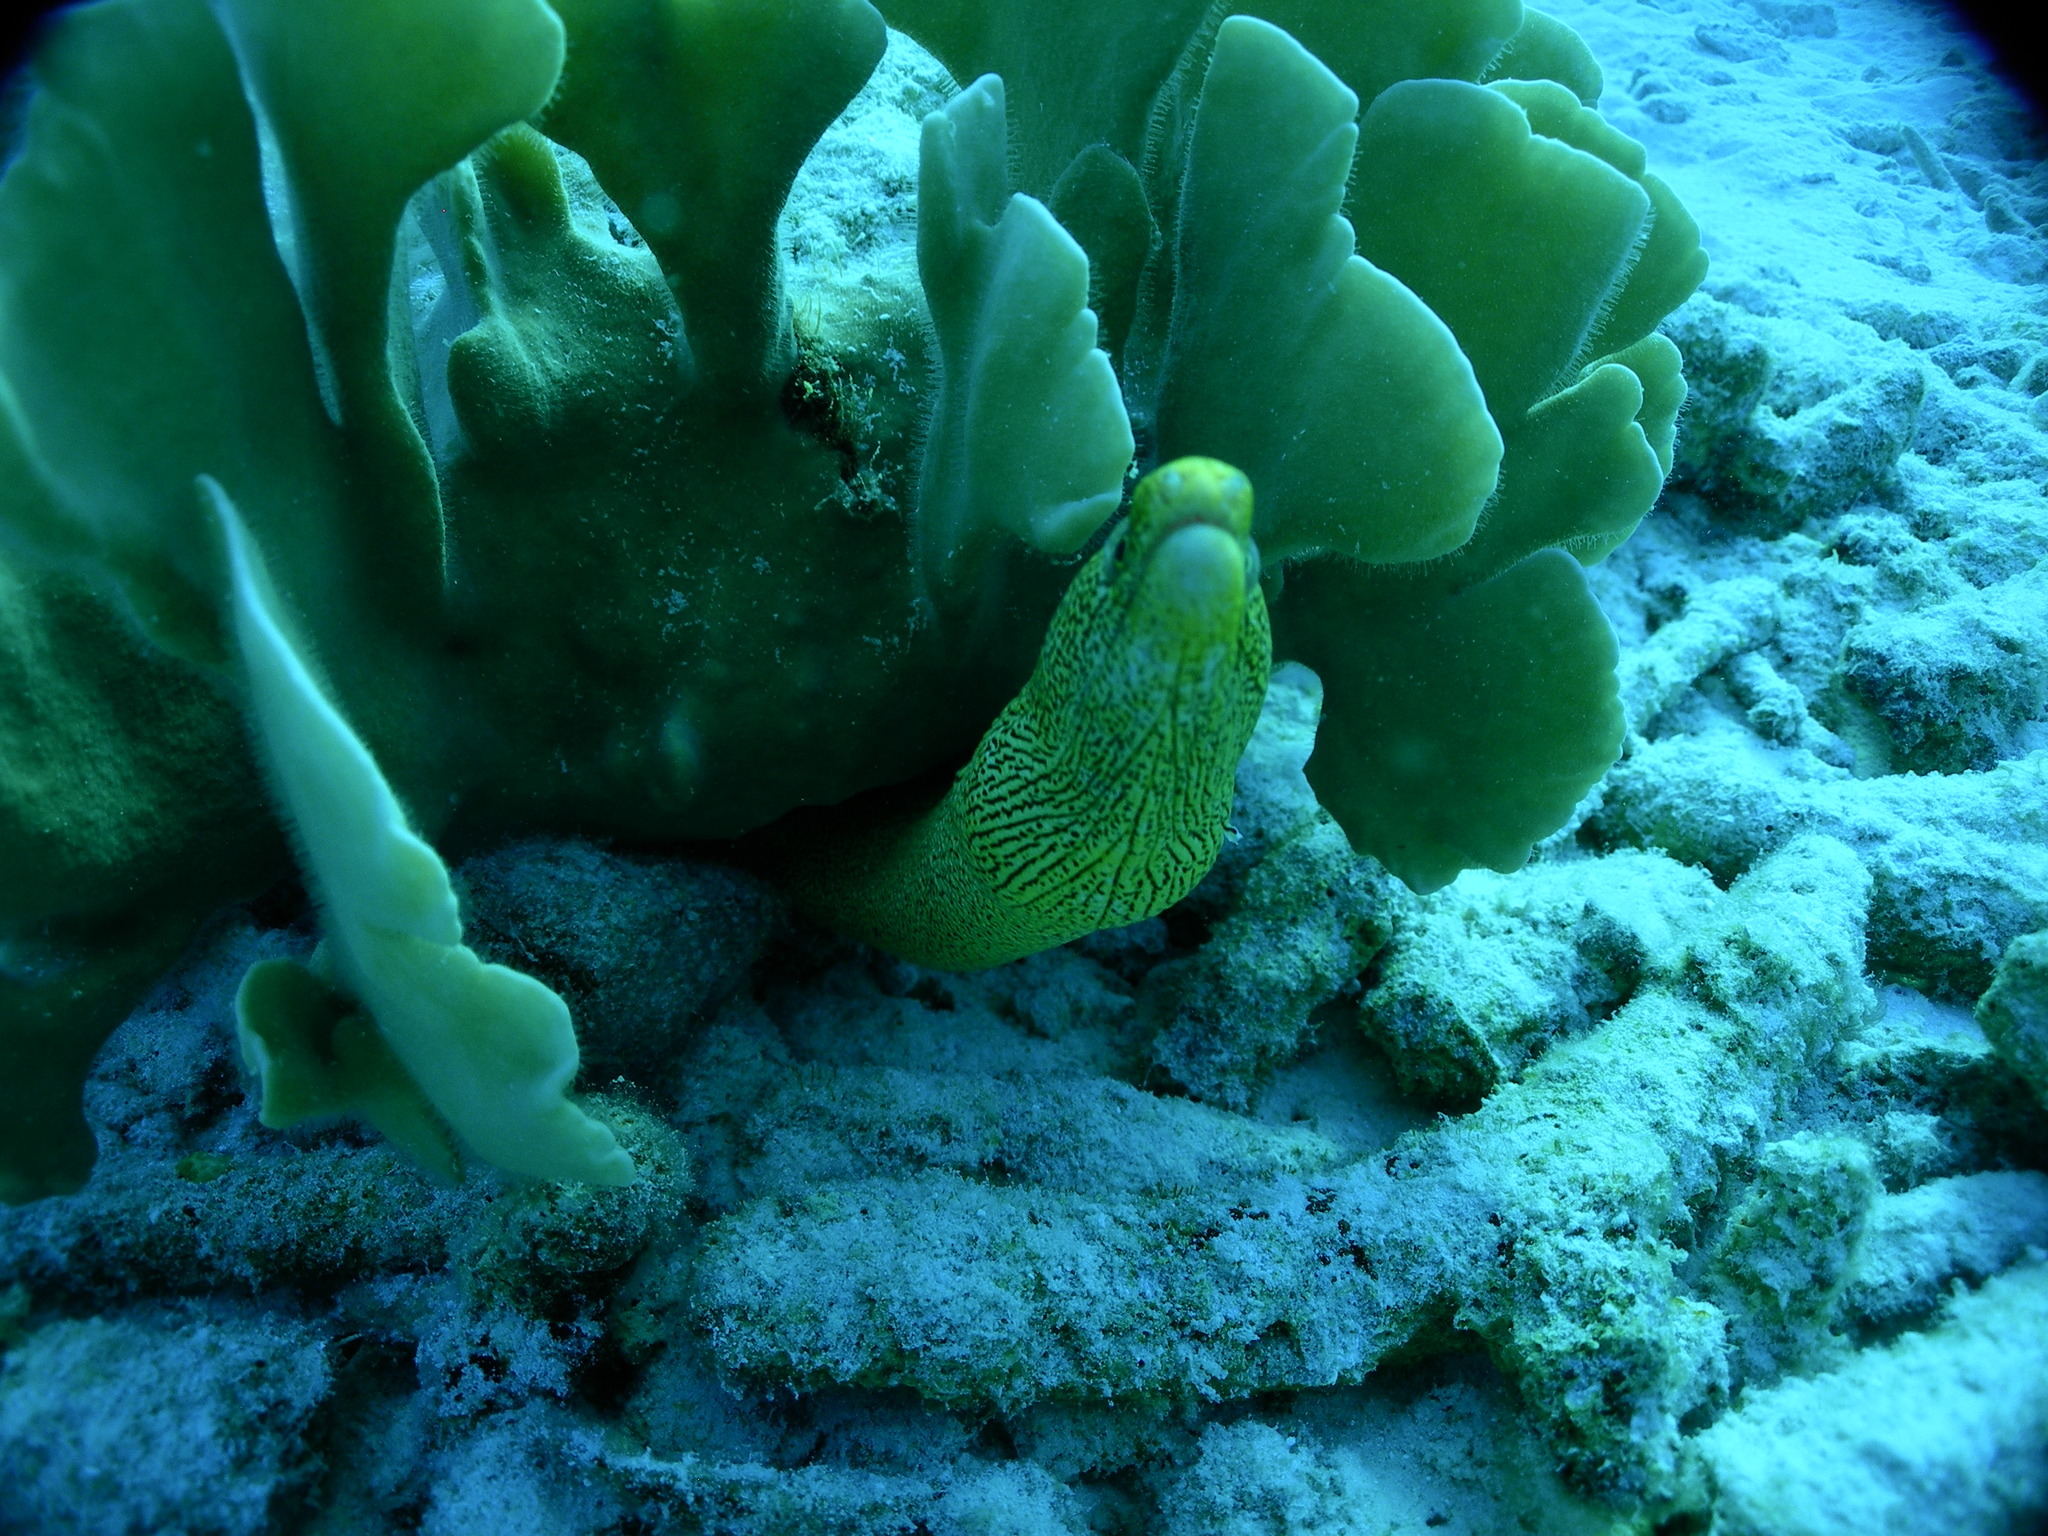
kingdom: Animalia
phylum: Chordata
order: Anguilliformes
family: Muraenidae
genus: Gymnothorax
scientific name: Gymnothorax miliaris
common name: Goldentail moray
